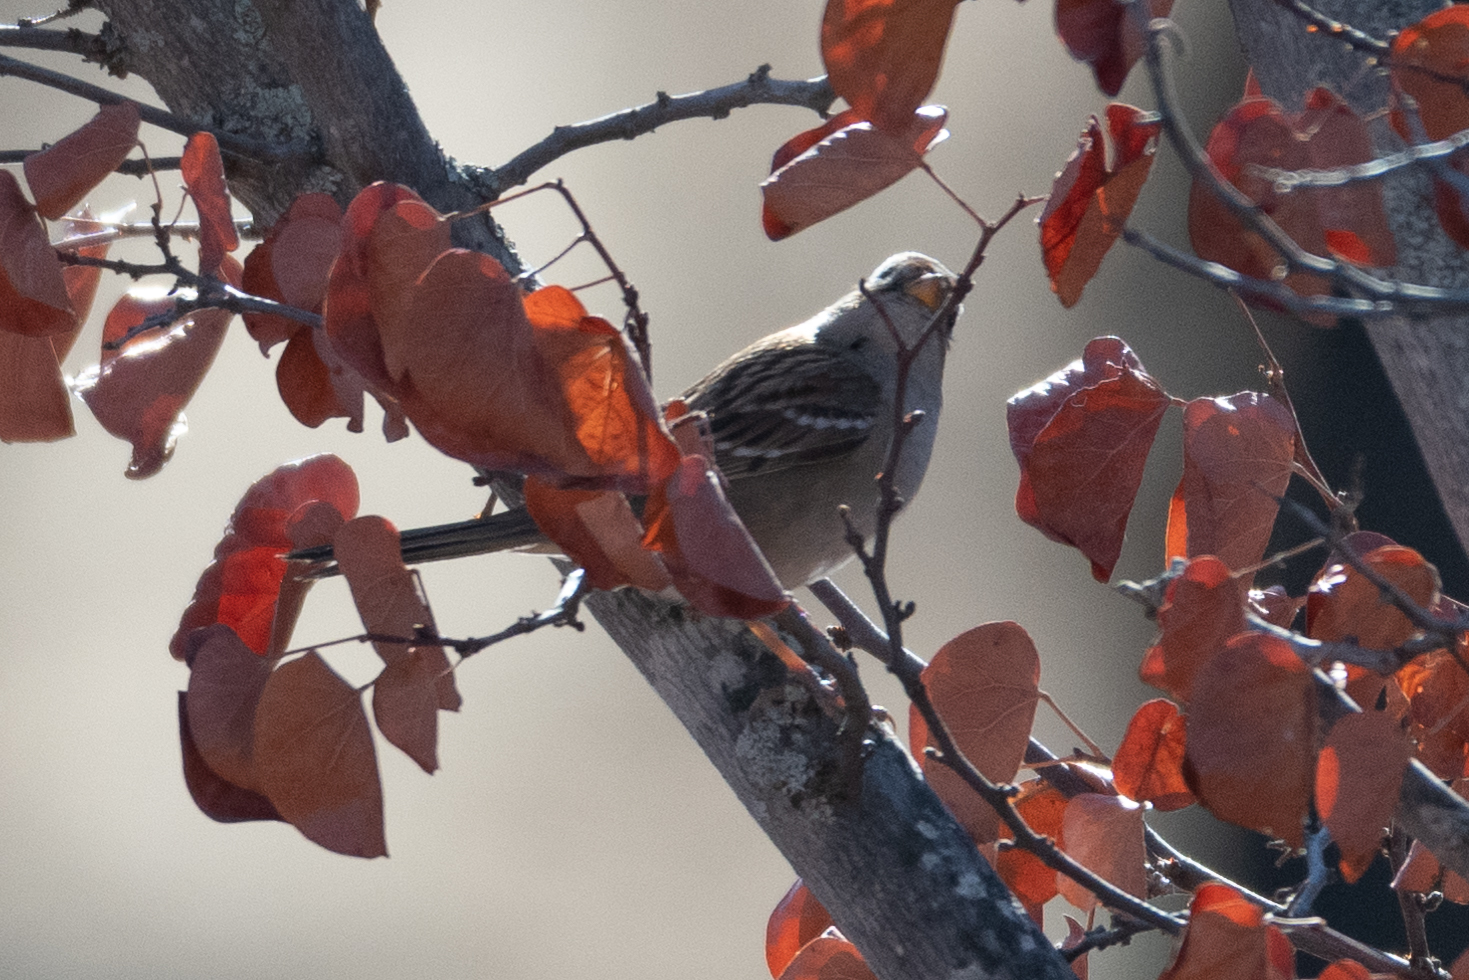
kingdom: Animalia
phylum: Chordata
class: Aves
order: Passeriformes
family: Passerellidae
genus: Zonotrichia
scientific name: Zonotrichia leucophrys
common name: White-crowned sparrow
